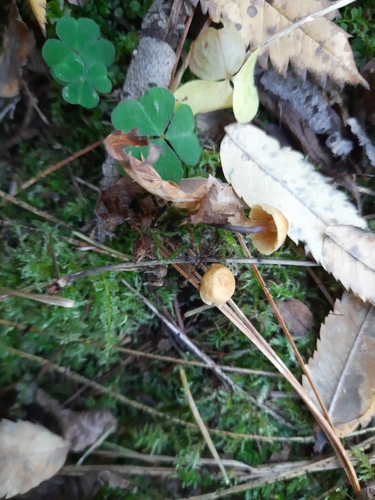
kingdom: Fungi
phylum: Basidiomycota
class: Agaricomycetes
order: Agaricales
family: Mycenaceae
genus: Xeromphalina
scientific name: Xeromphalina cauticinalis
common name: Pinelitter gingertail
